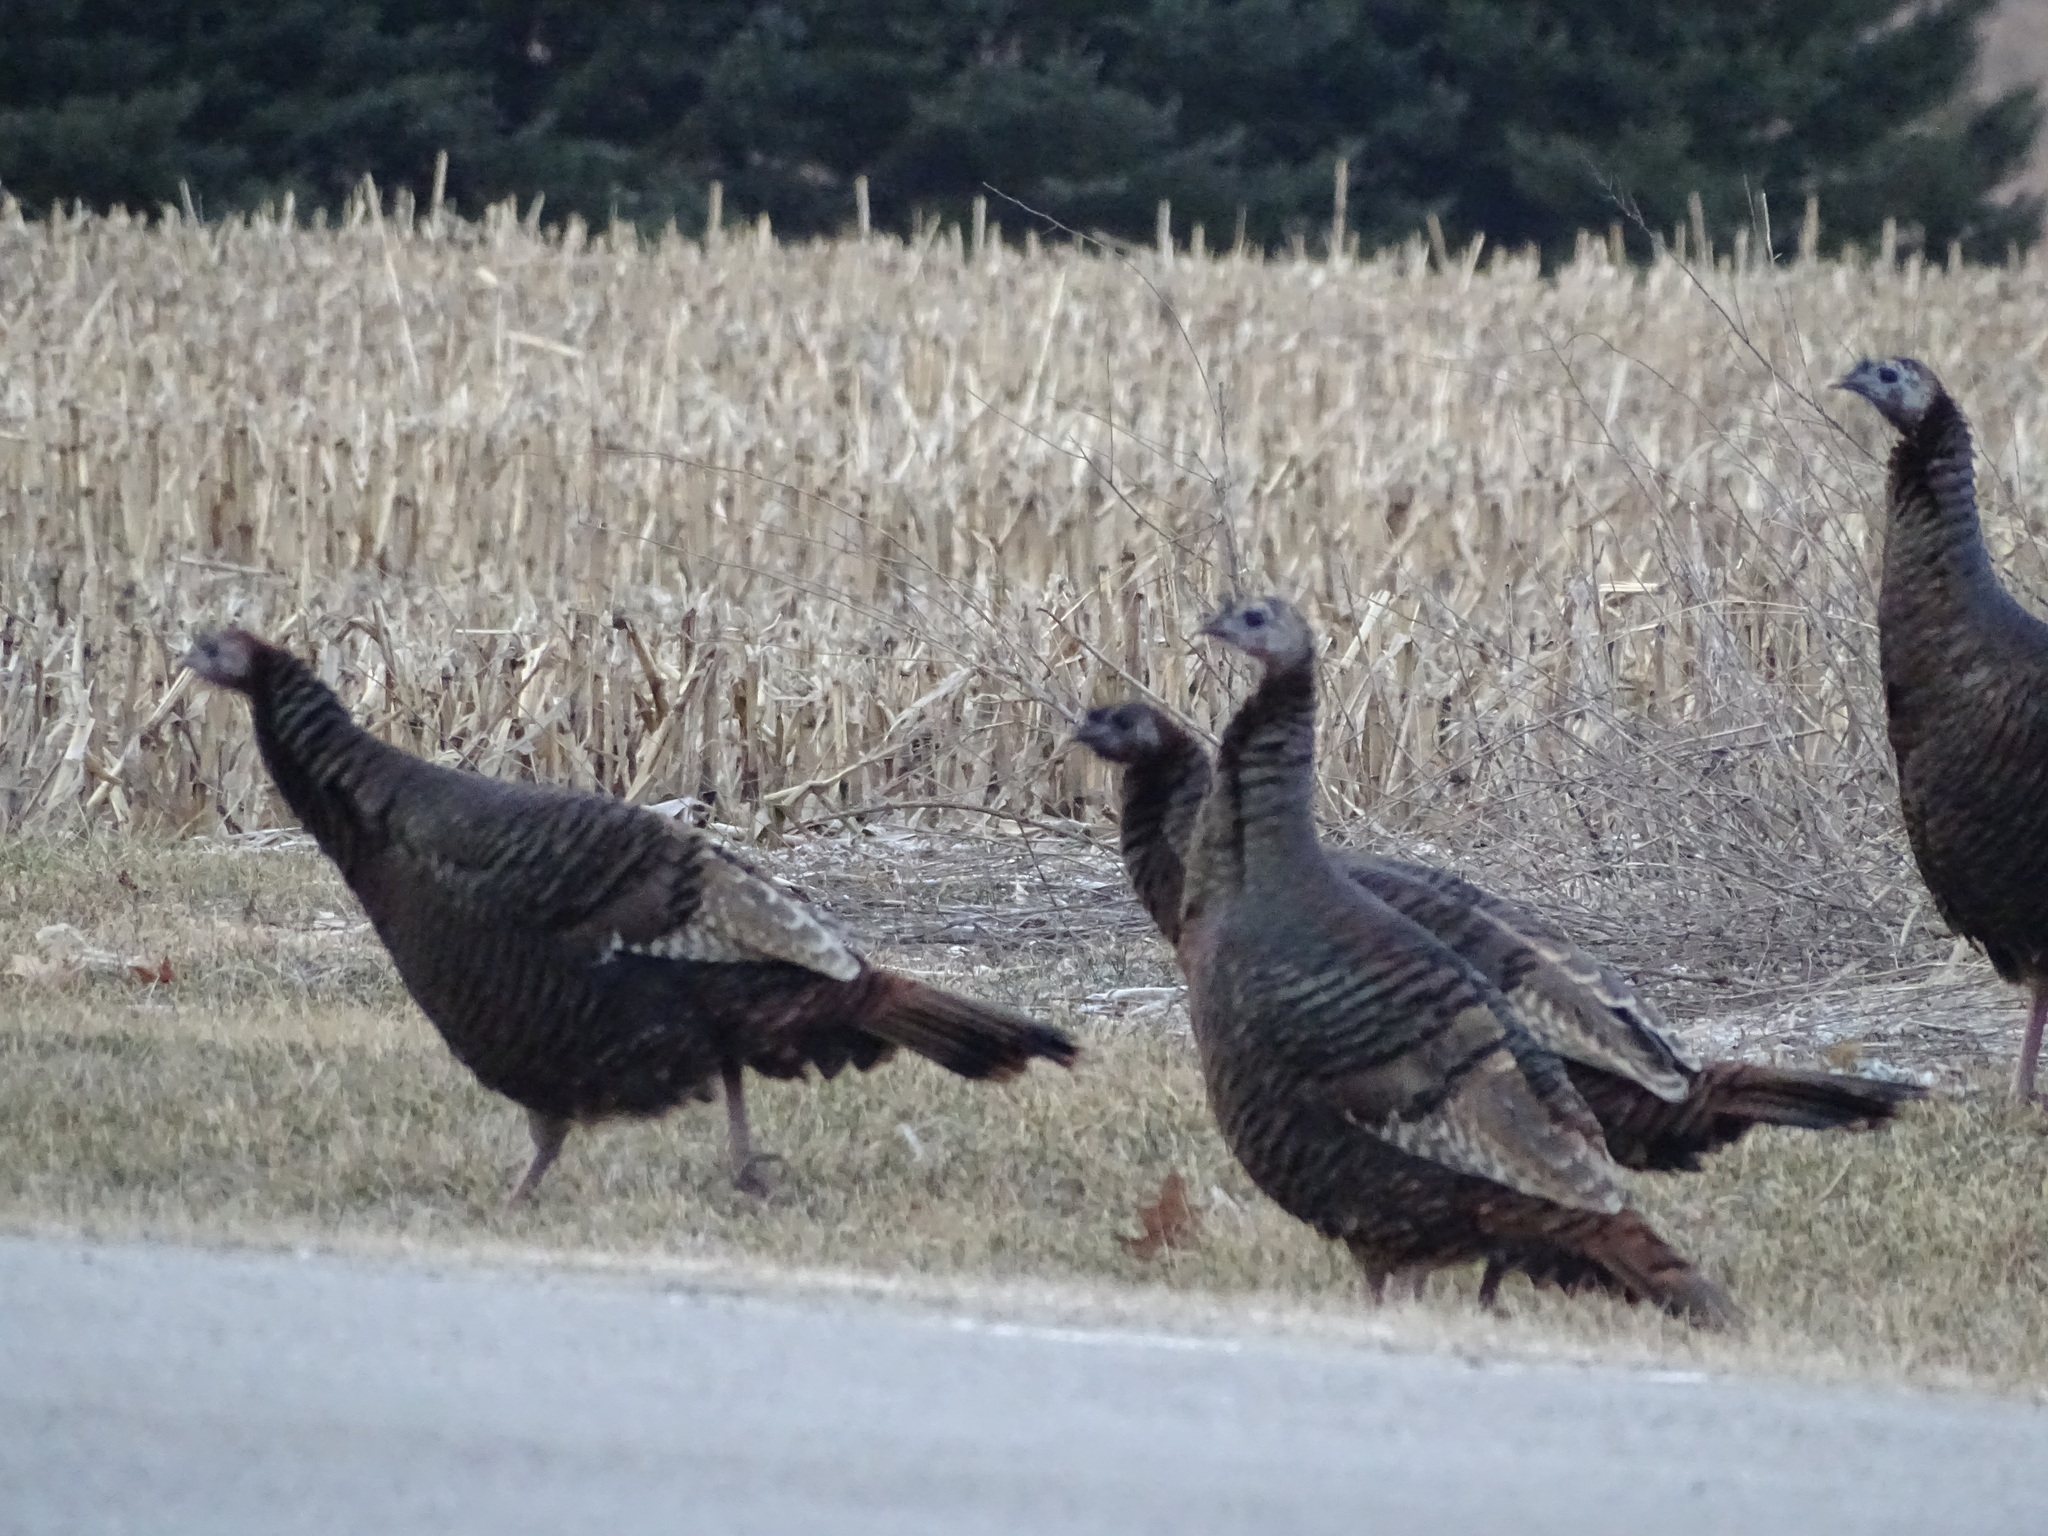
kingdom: Animalia
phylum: Chordata
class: Aves
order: Galliformes
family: Phasianidae
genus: Meleagris
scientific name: Meleagris gallopavo
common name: Wild turkey
